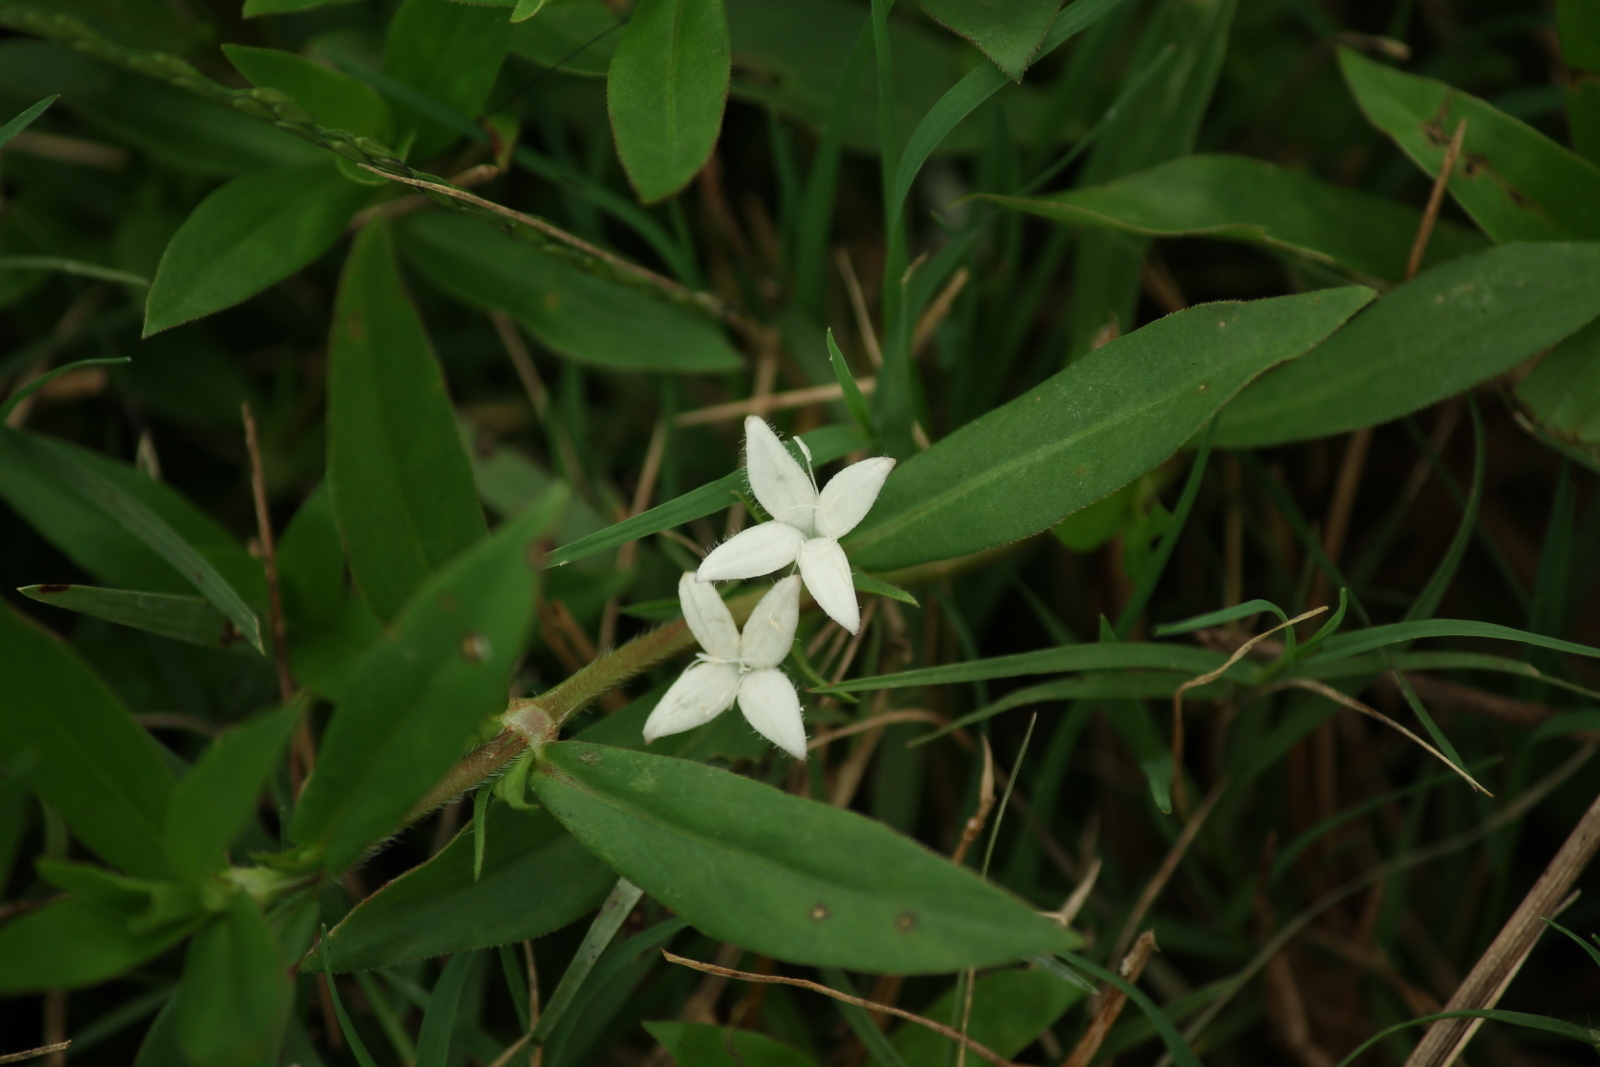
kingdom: Plantae
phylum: Tracheophyta
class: Magnoliopsida
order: Gentianales
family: Rubiaceae
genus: Diodia
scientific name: Diodia virginiana
